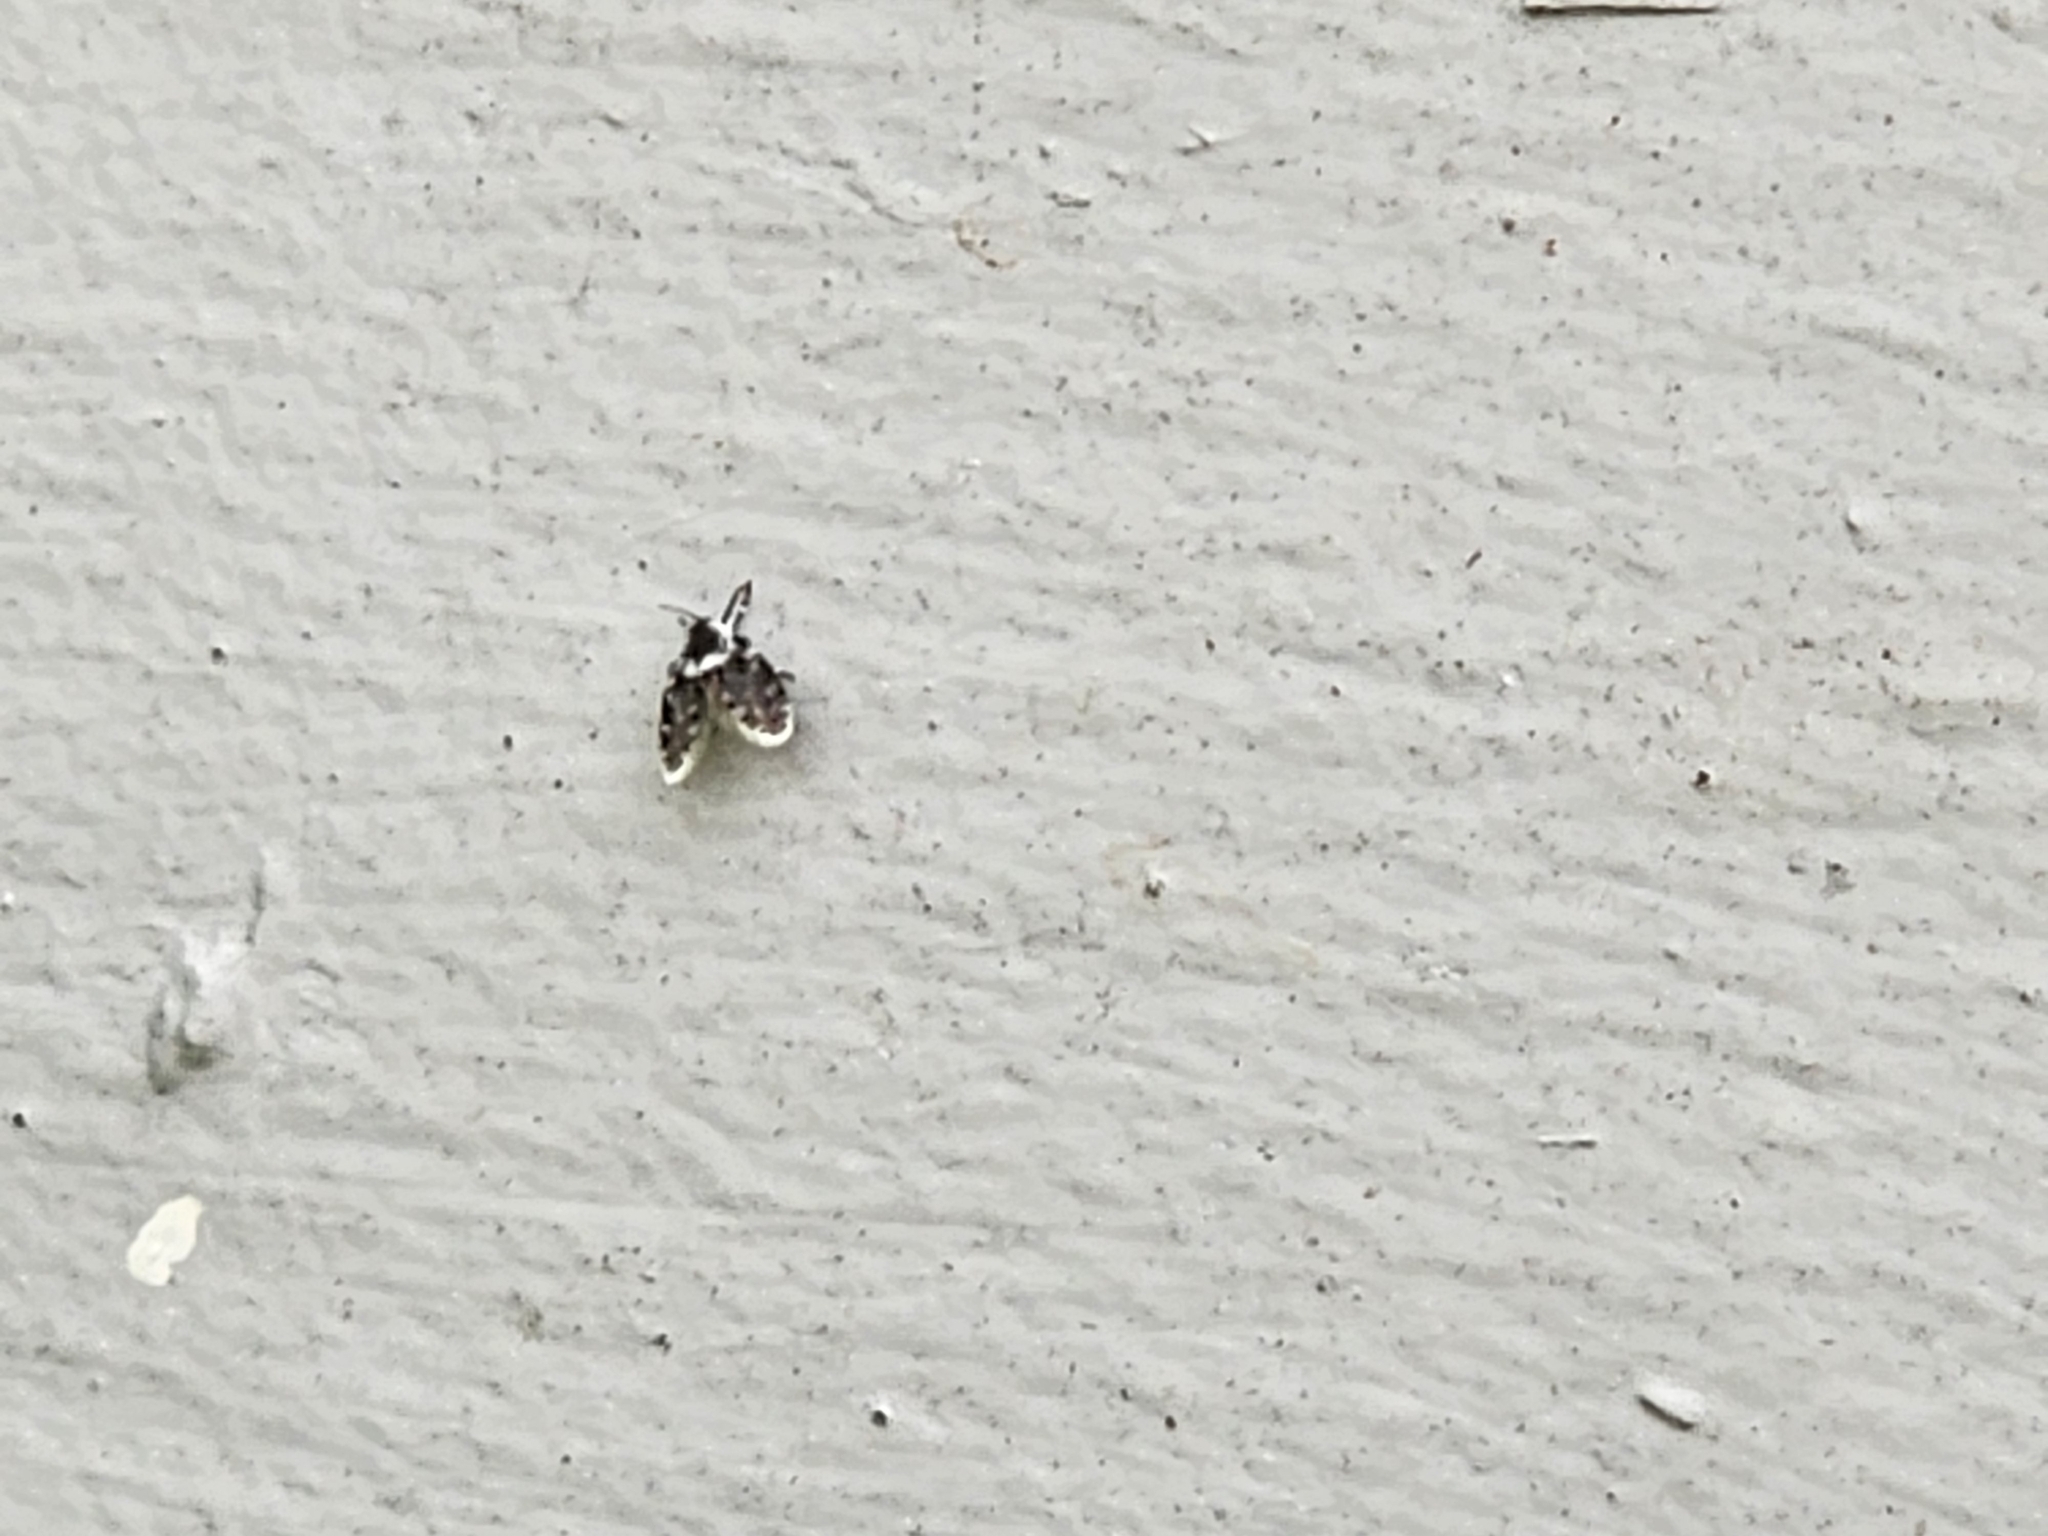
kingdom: Animalia
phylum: Arthropoda
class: Insecta
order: Diptera
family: Psychodidae
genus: Lepiseodina
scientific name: Lepiseodina
